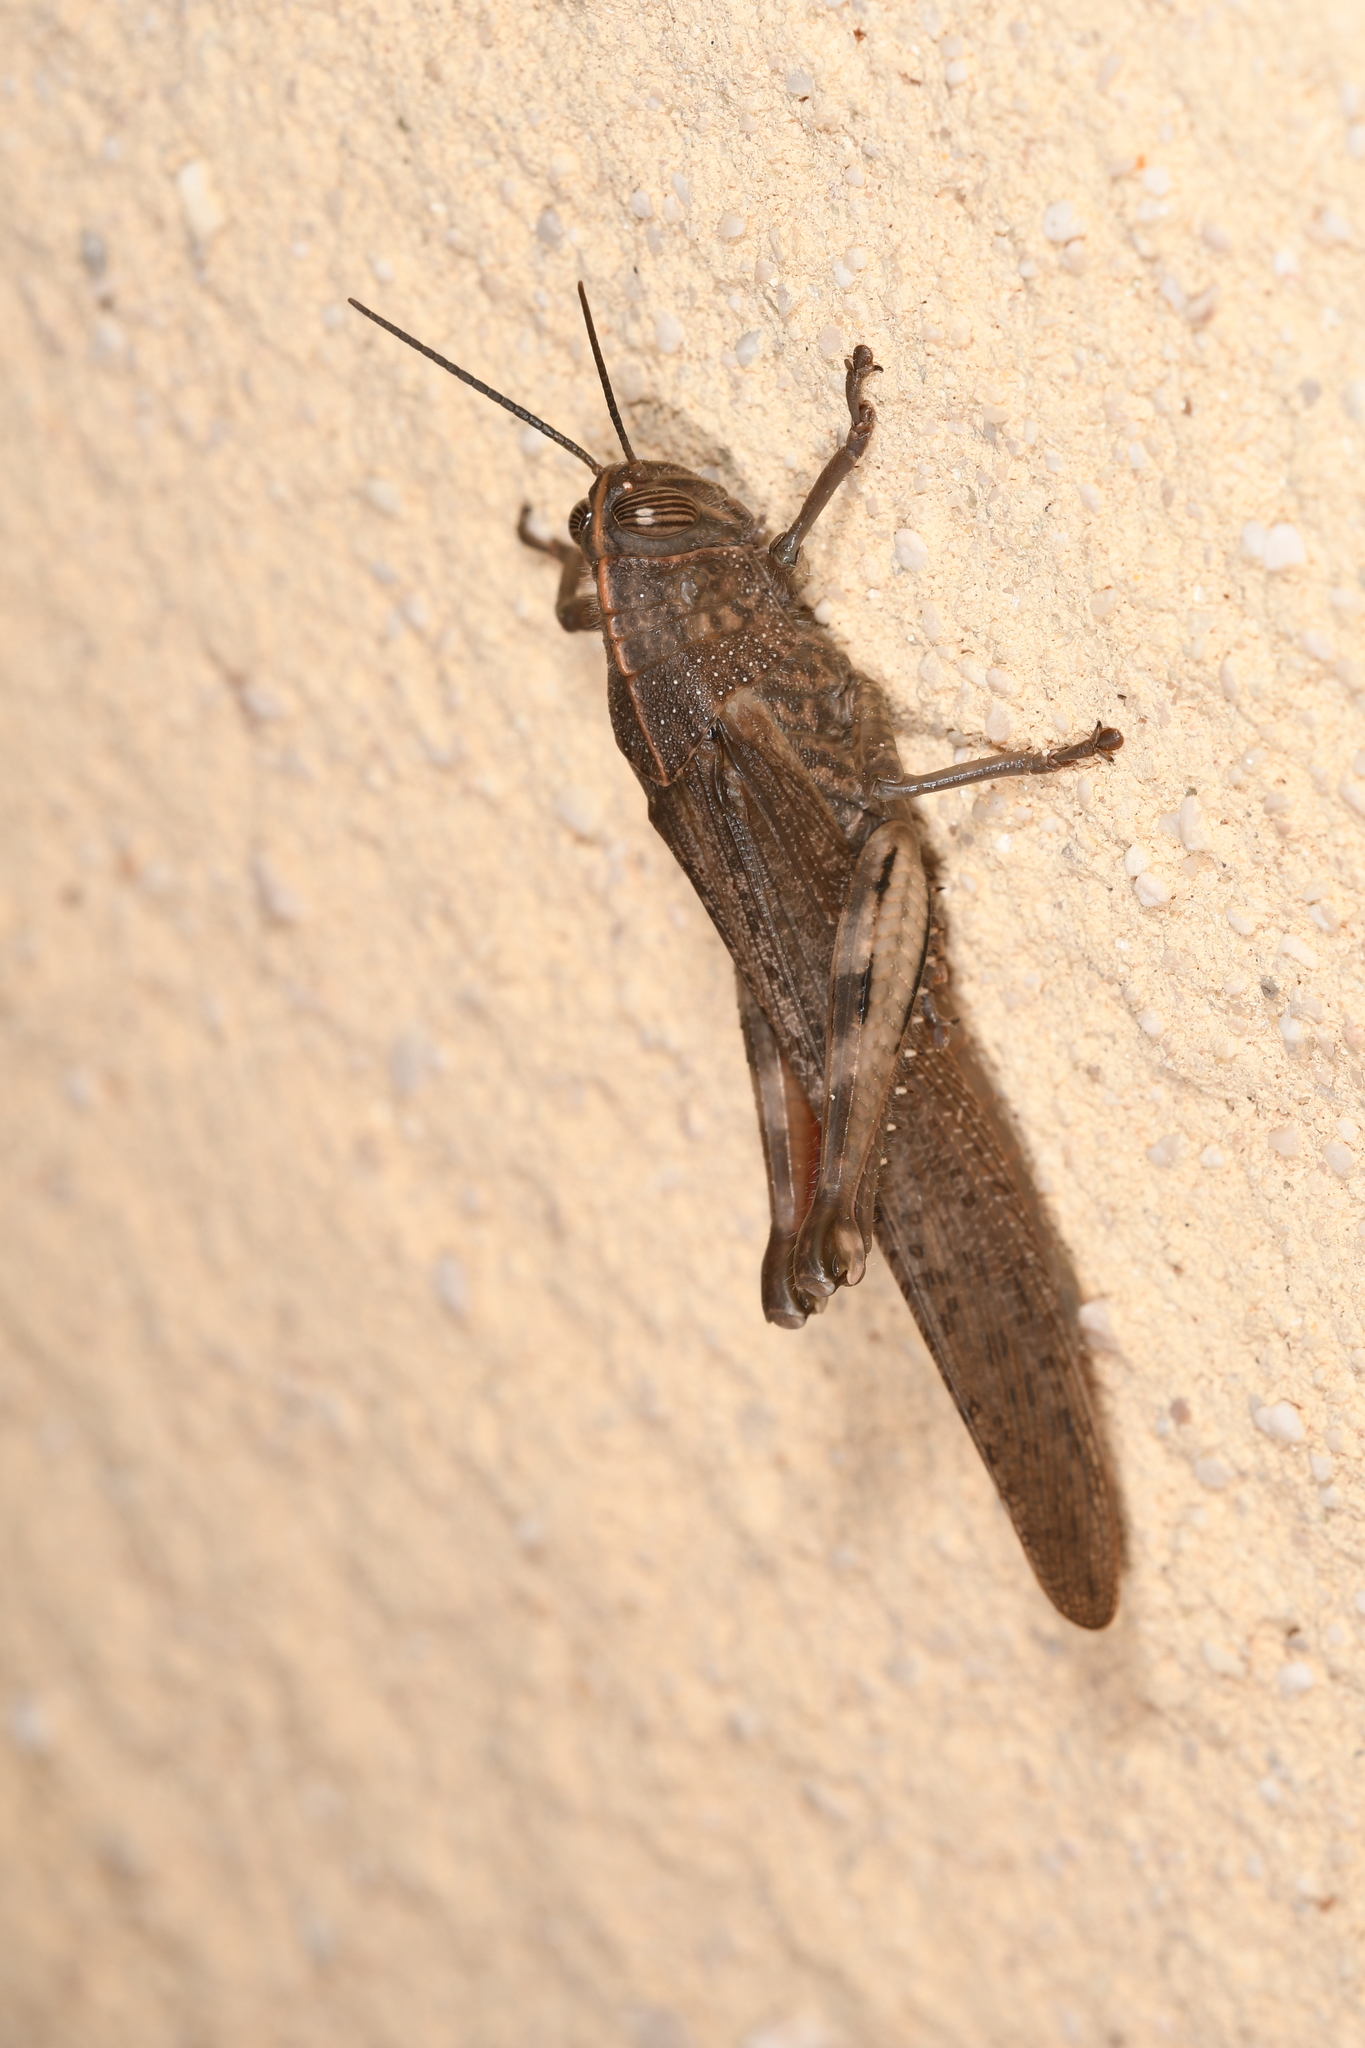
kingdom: Animalia
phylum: Arthropoda
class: Insecta
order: Orthoptera
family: Acrididae
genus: Anacridium
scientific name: Anacridium aegyptium
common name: Egyptian grasshopper
